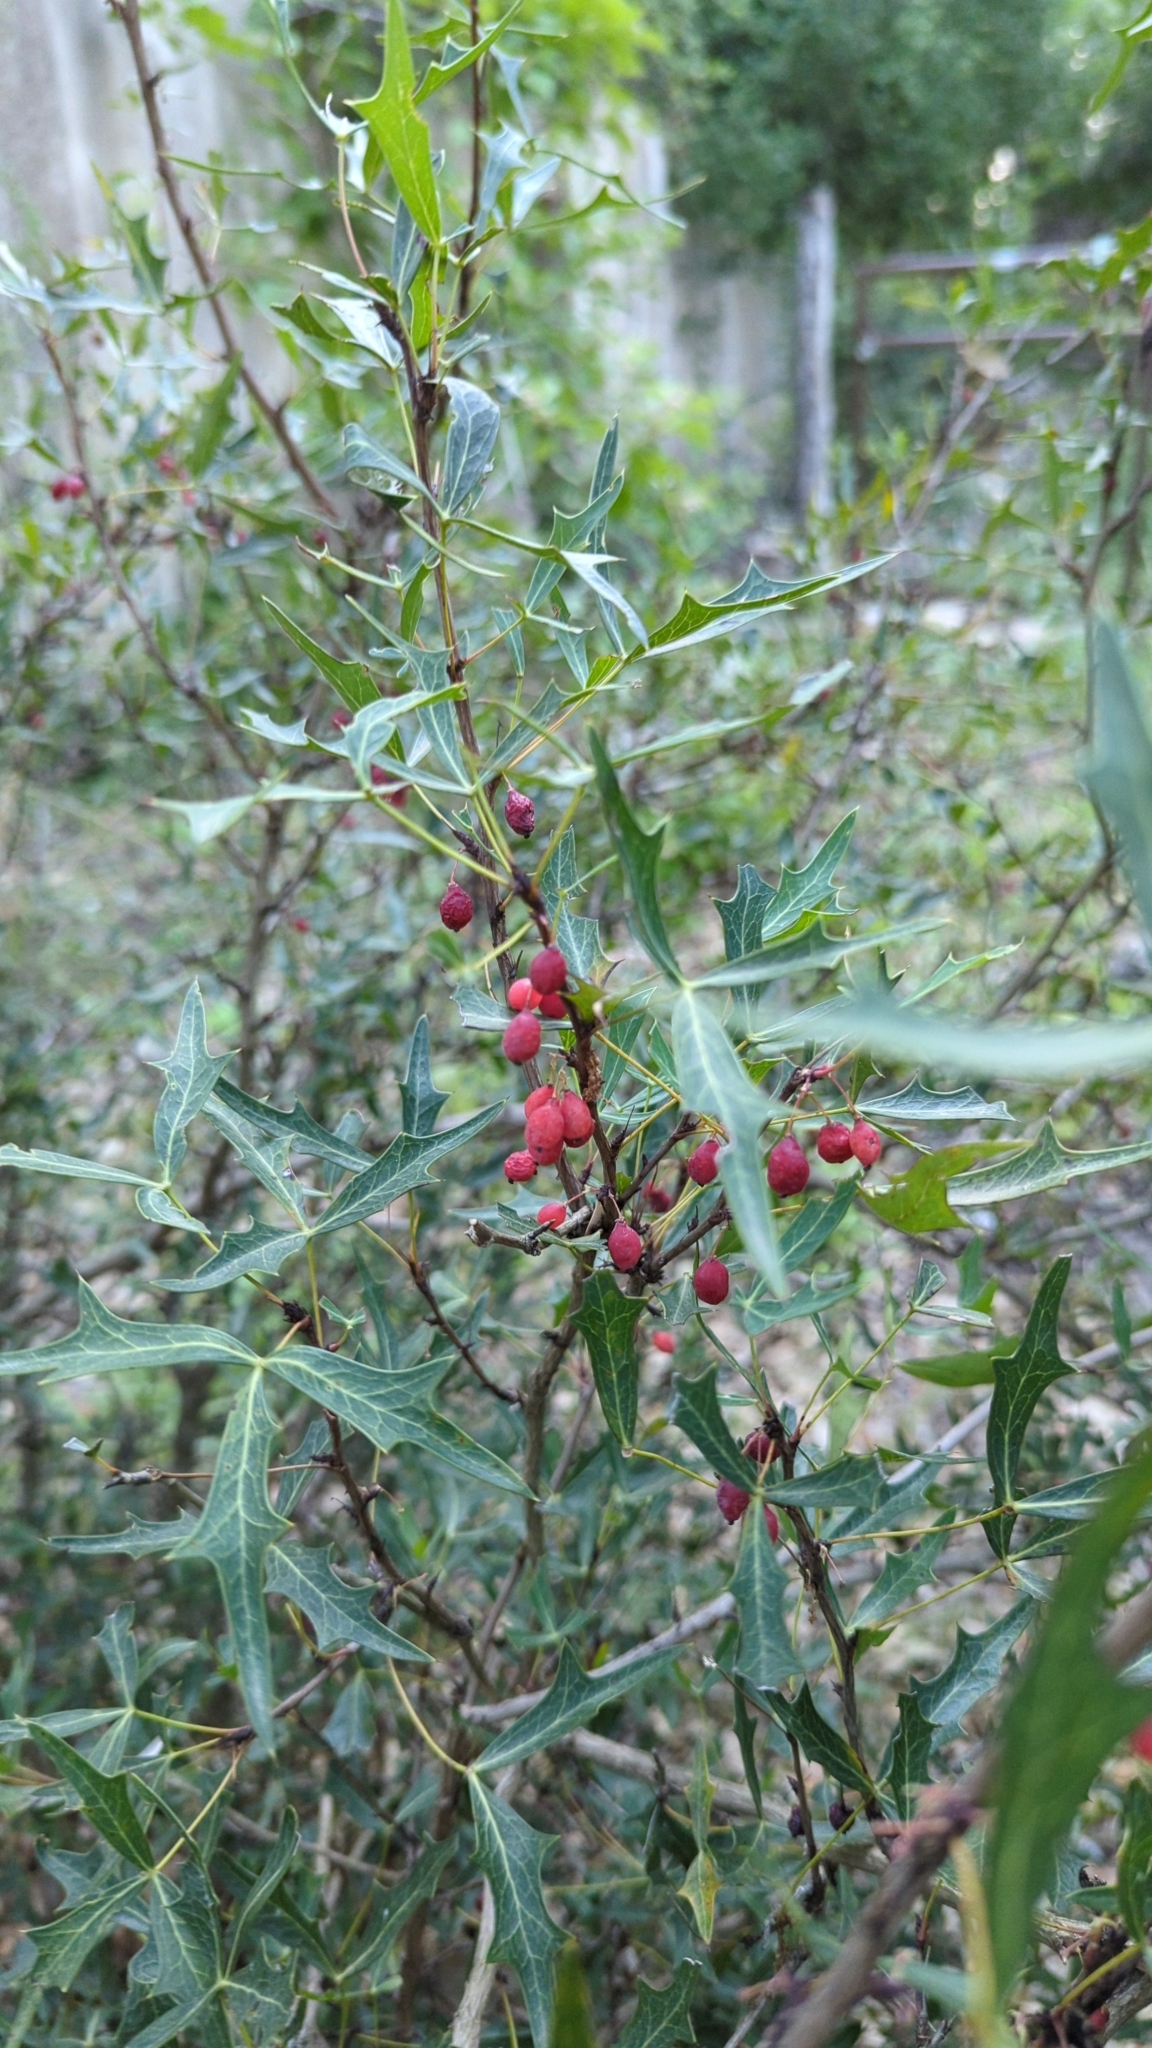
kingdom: Plantae
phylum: Tracheophyta
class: Magnoliopsida
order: Ranunculales
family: Berberidaceae
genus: Alloberberis
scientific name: Alloberberis trifoliolata
